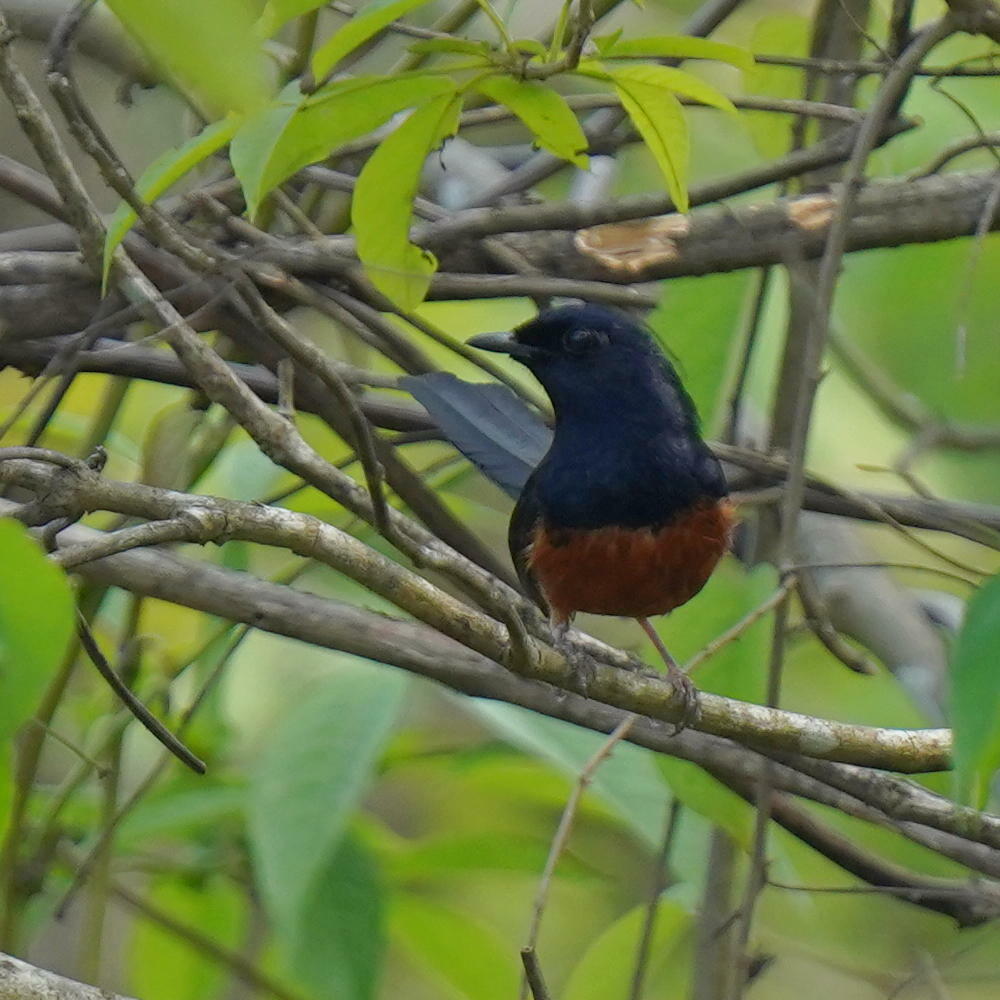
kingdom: Animalia
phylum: Chordata
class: Aves
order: Passeriformes
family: Muscicapidae
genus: Copsychus
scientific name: Copsychus malabaricus
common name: White-rumped shama
